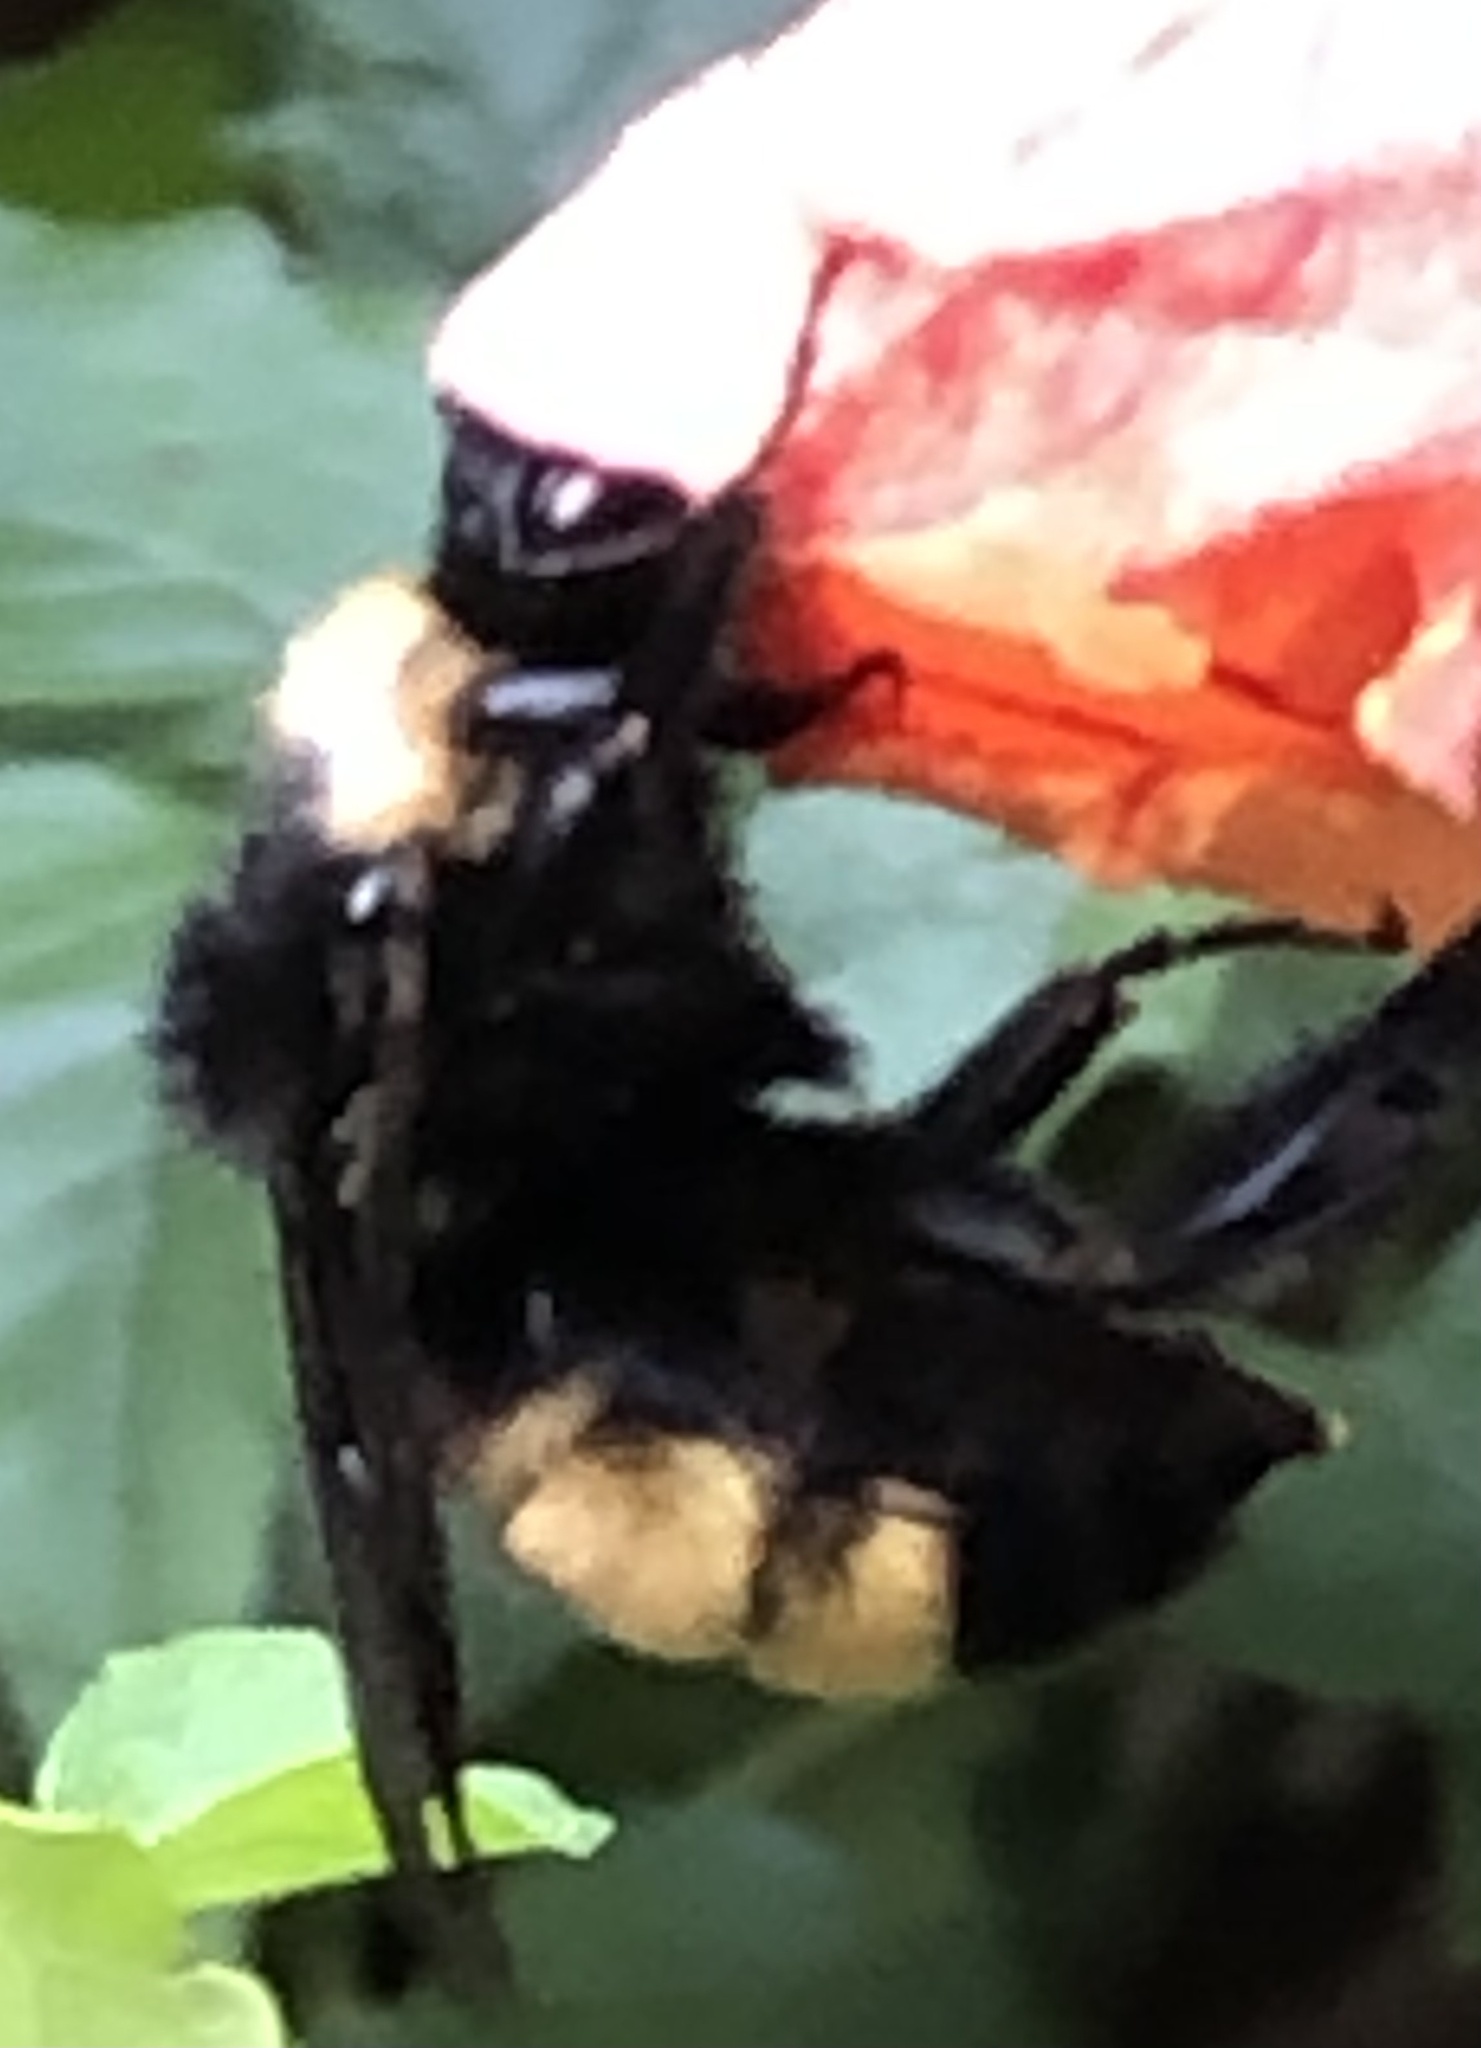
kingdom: Animalia
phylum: Arthropoda
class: Insecta
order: Hymenoptera
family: Apidae
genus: Bombus
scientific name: Bombus pensylvanicus
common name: Bumble bee
